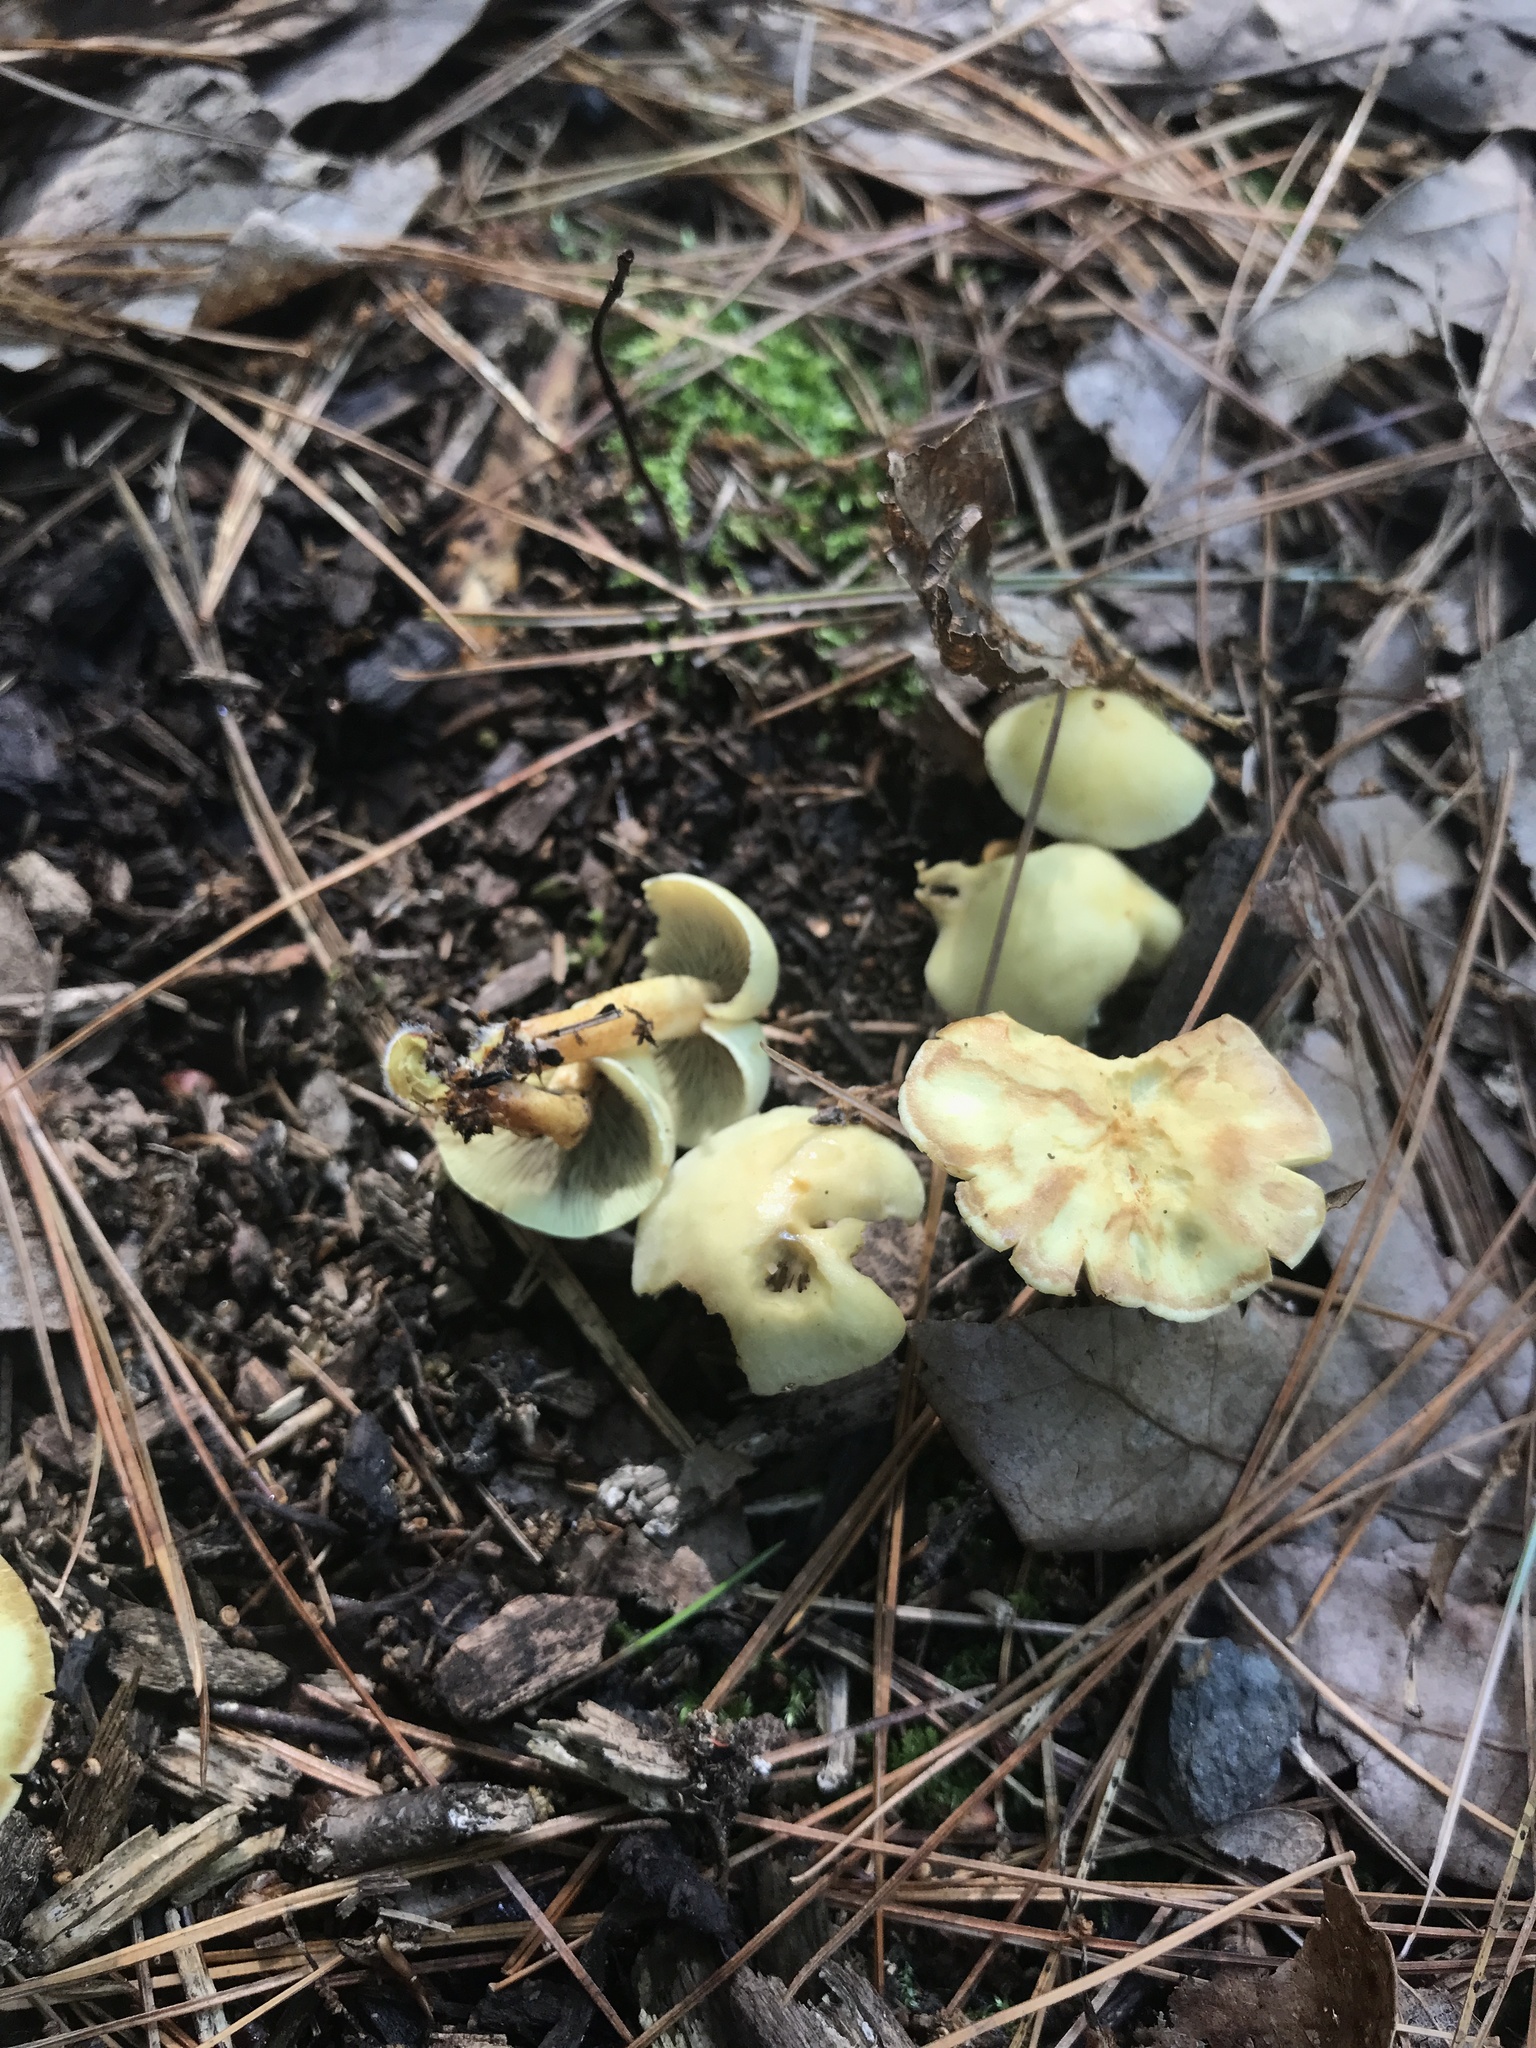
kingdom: Fungi
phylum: Basidiomycota
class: Agaricomycetes
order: Agaricales
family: Strophariaceae
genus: Hypholoma
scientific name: Hypholoma fasciculare
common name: Sulphur tuft
